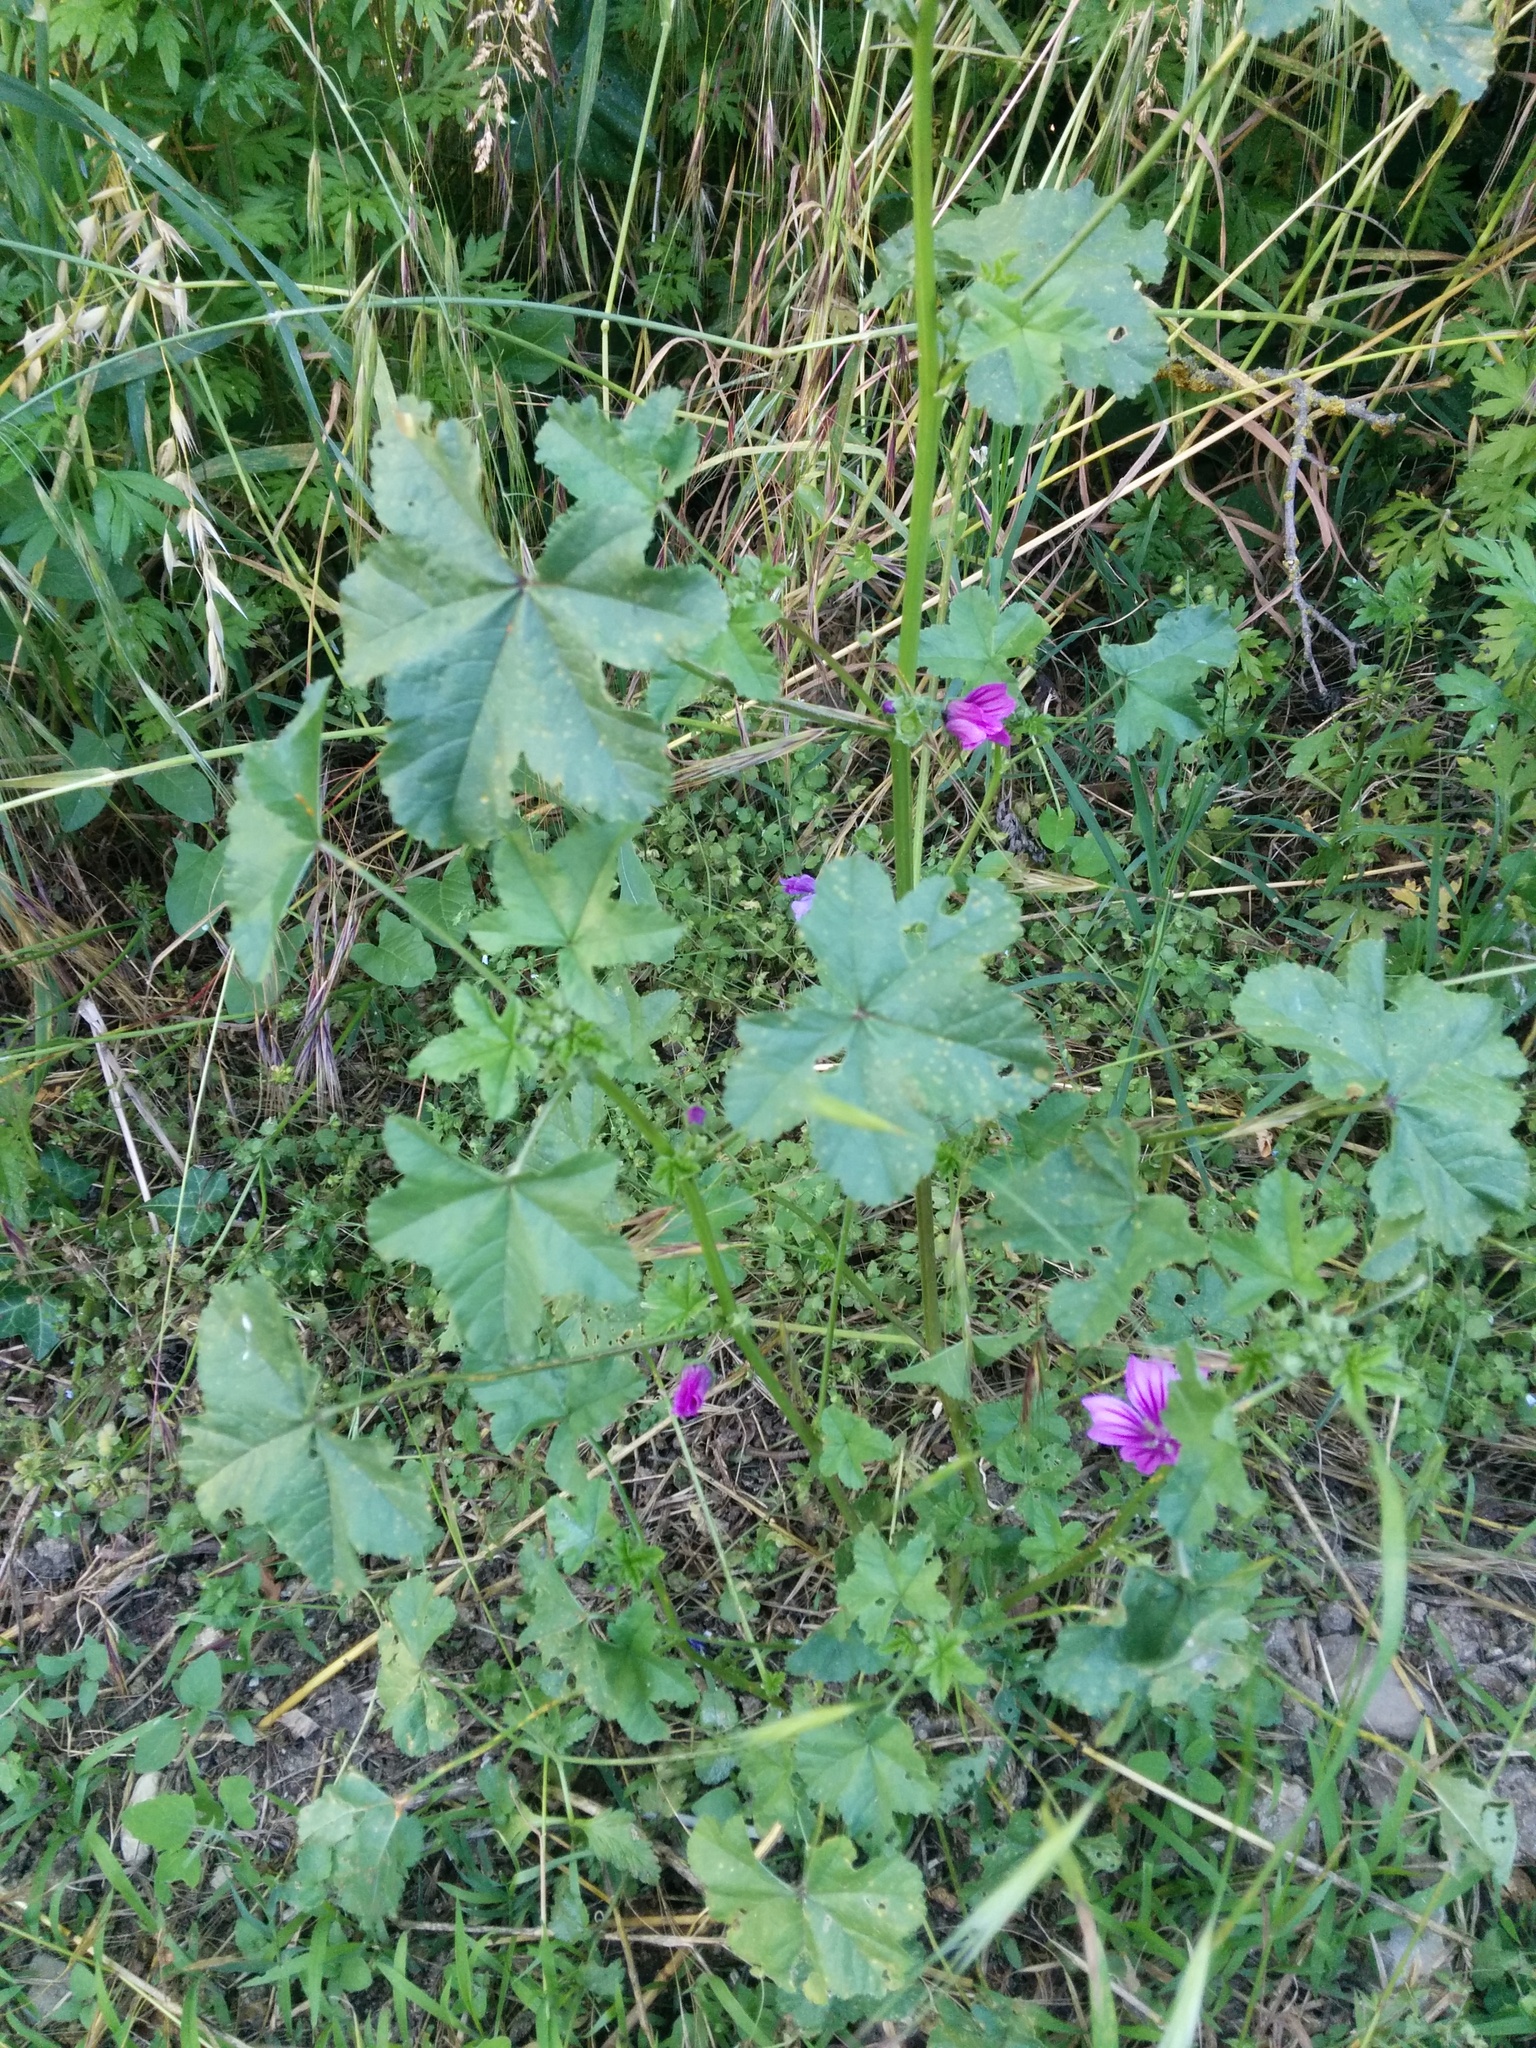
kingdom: Plantae
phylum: Tracheophyta
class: Magnoliopsida
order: Malvales
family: Malvaceae
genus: Malva
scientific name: Malva sylvestris
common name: Common mallow
